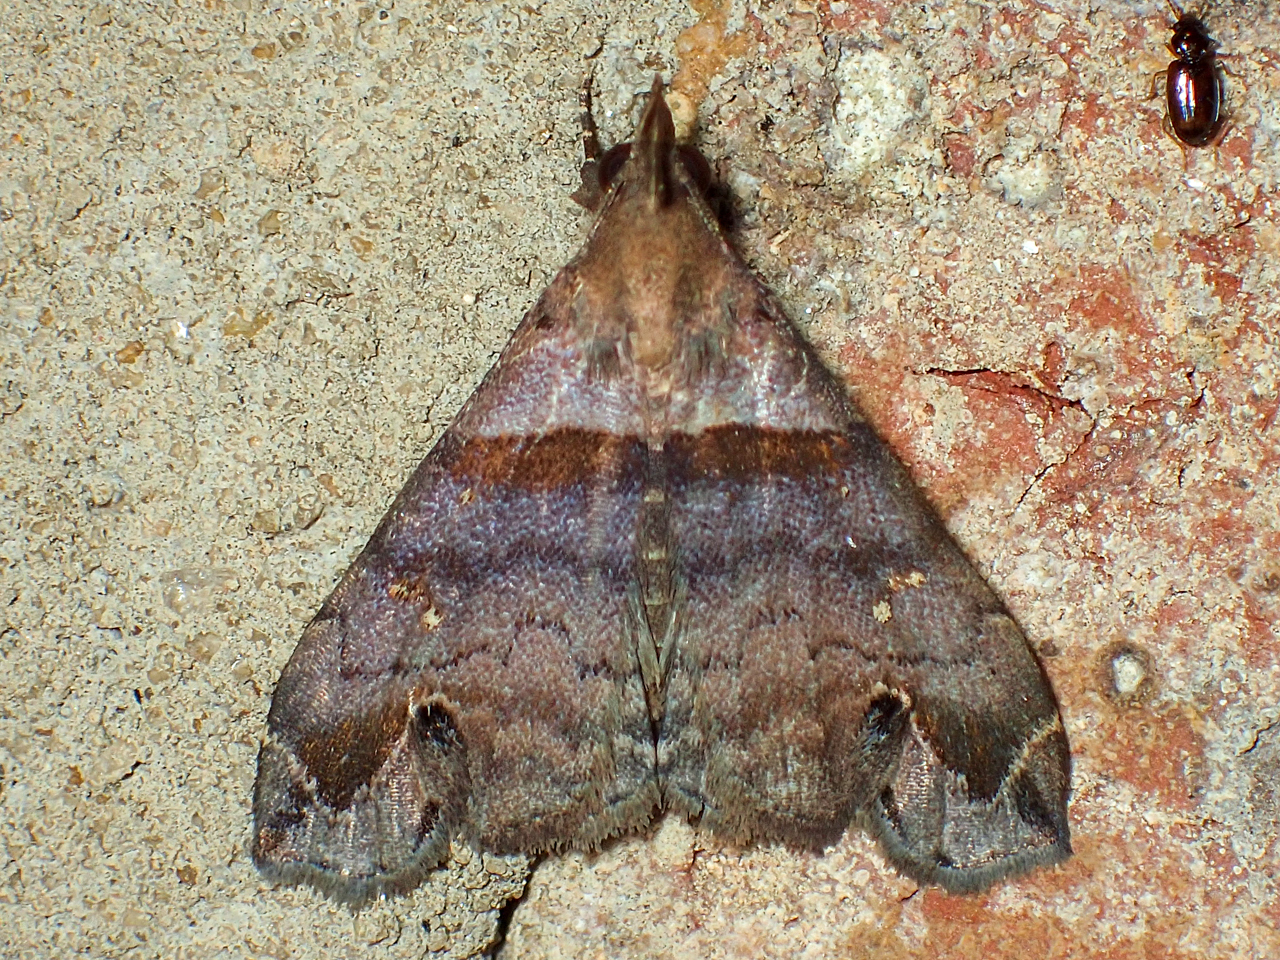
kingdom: Animalia
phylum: Arthropoda
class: Insecta
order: Lepidoptera
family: Erebidae
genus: Lascoria
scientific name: Lascoria ambigualis
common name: Ambiguous moth
